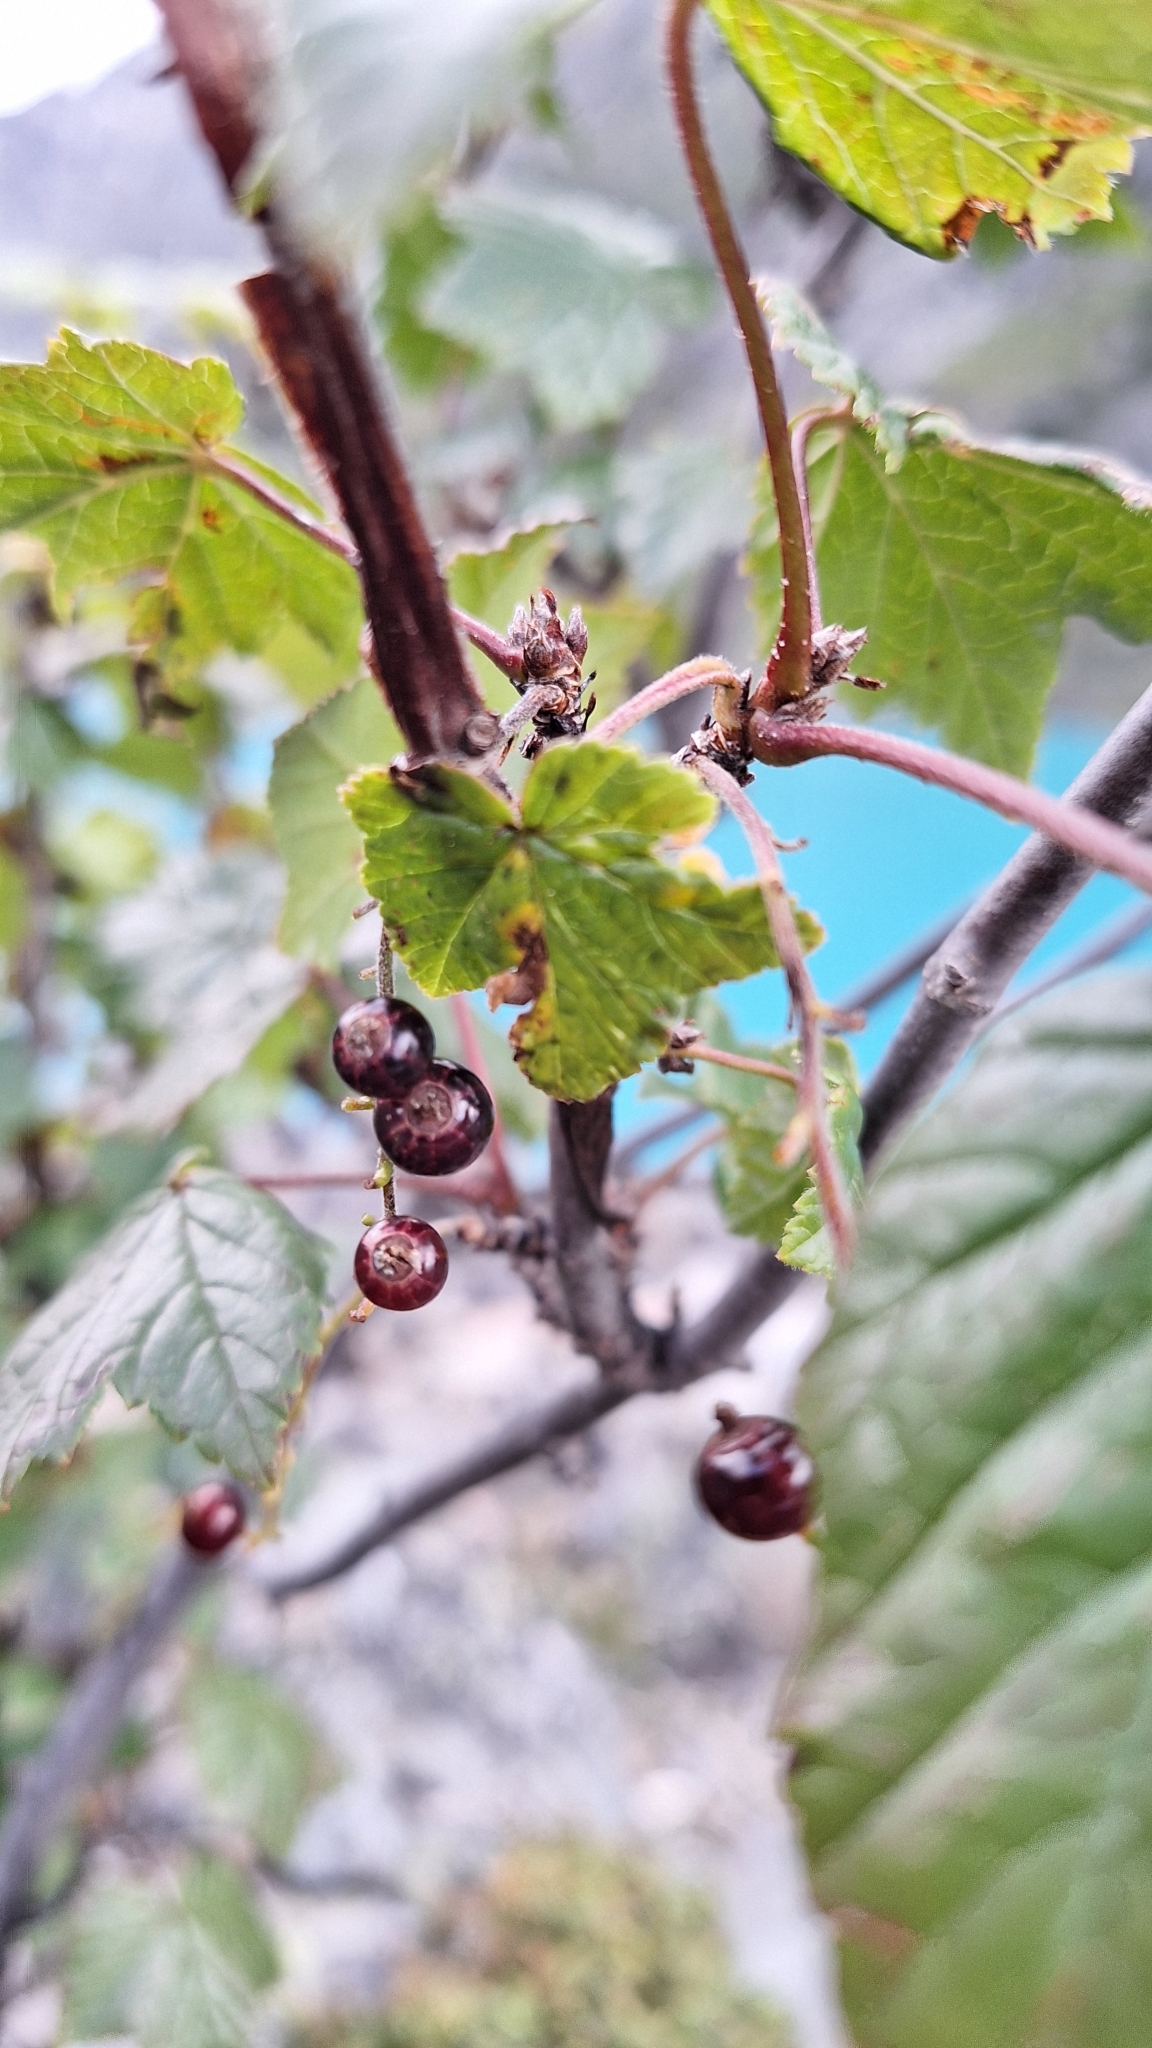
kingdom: Plantae
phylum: Tracheophyta
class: Magnoliopsida
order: Saxifragales
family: Grossulariaceae
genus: Ribes
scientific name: Ribes petraeum
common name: Rock currant
